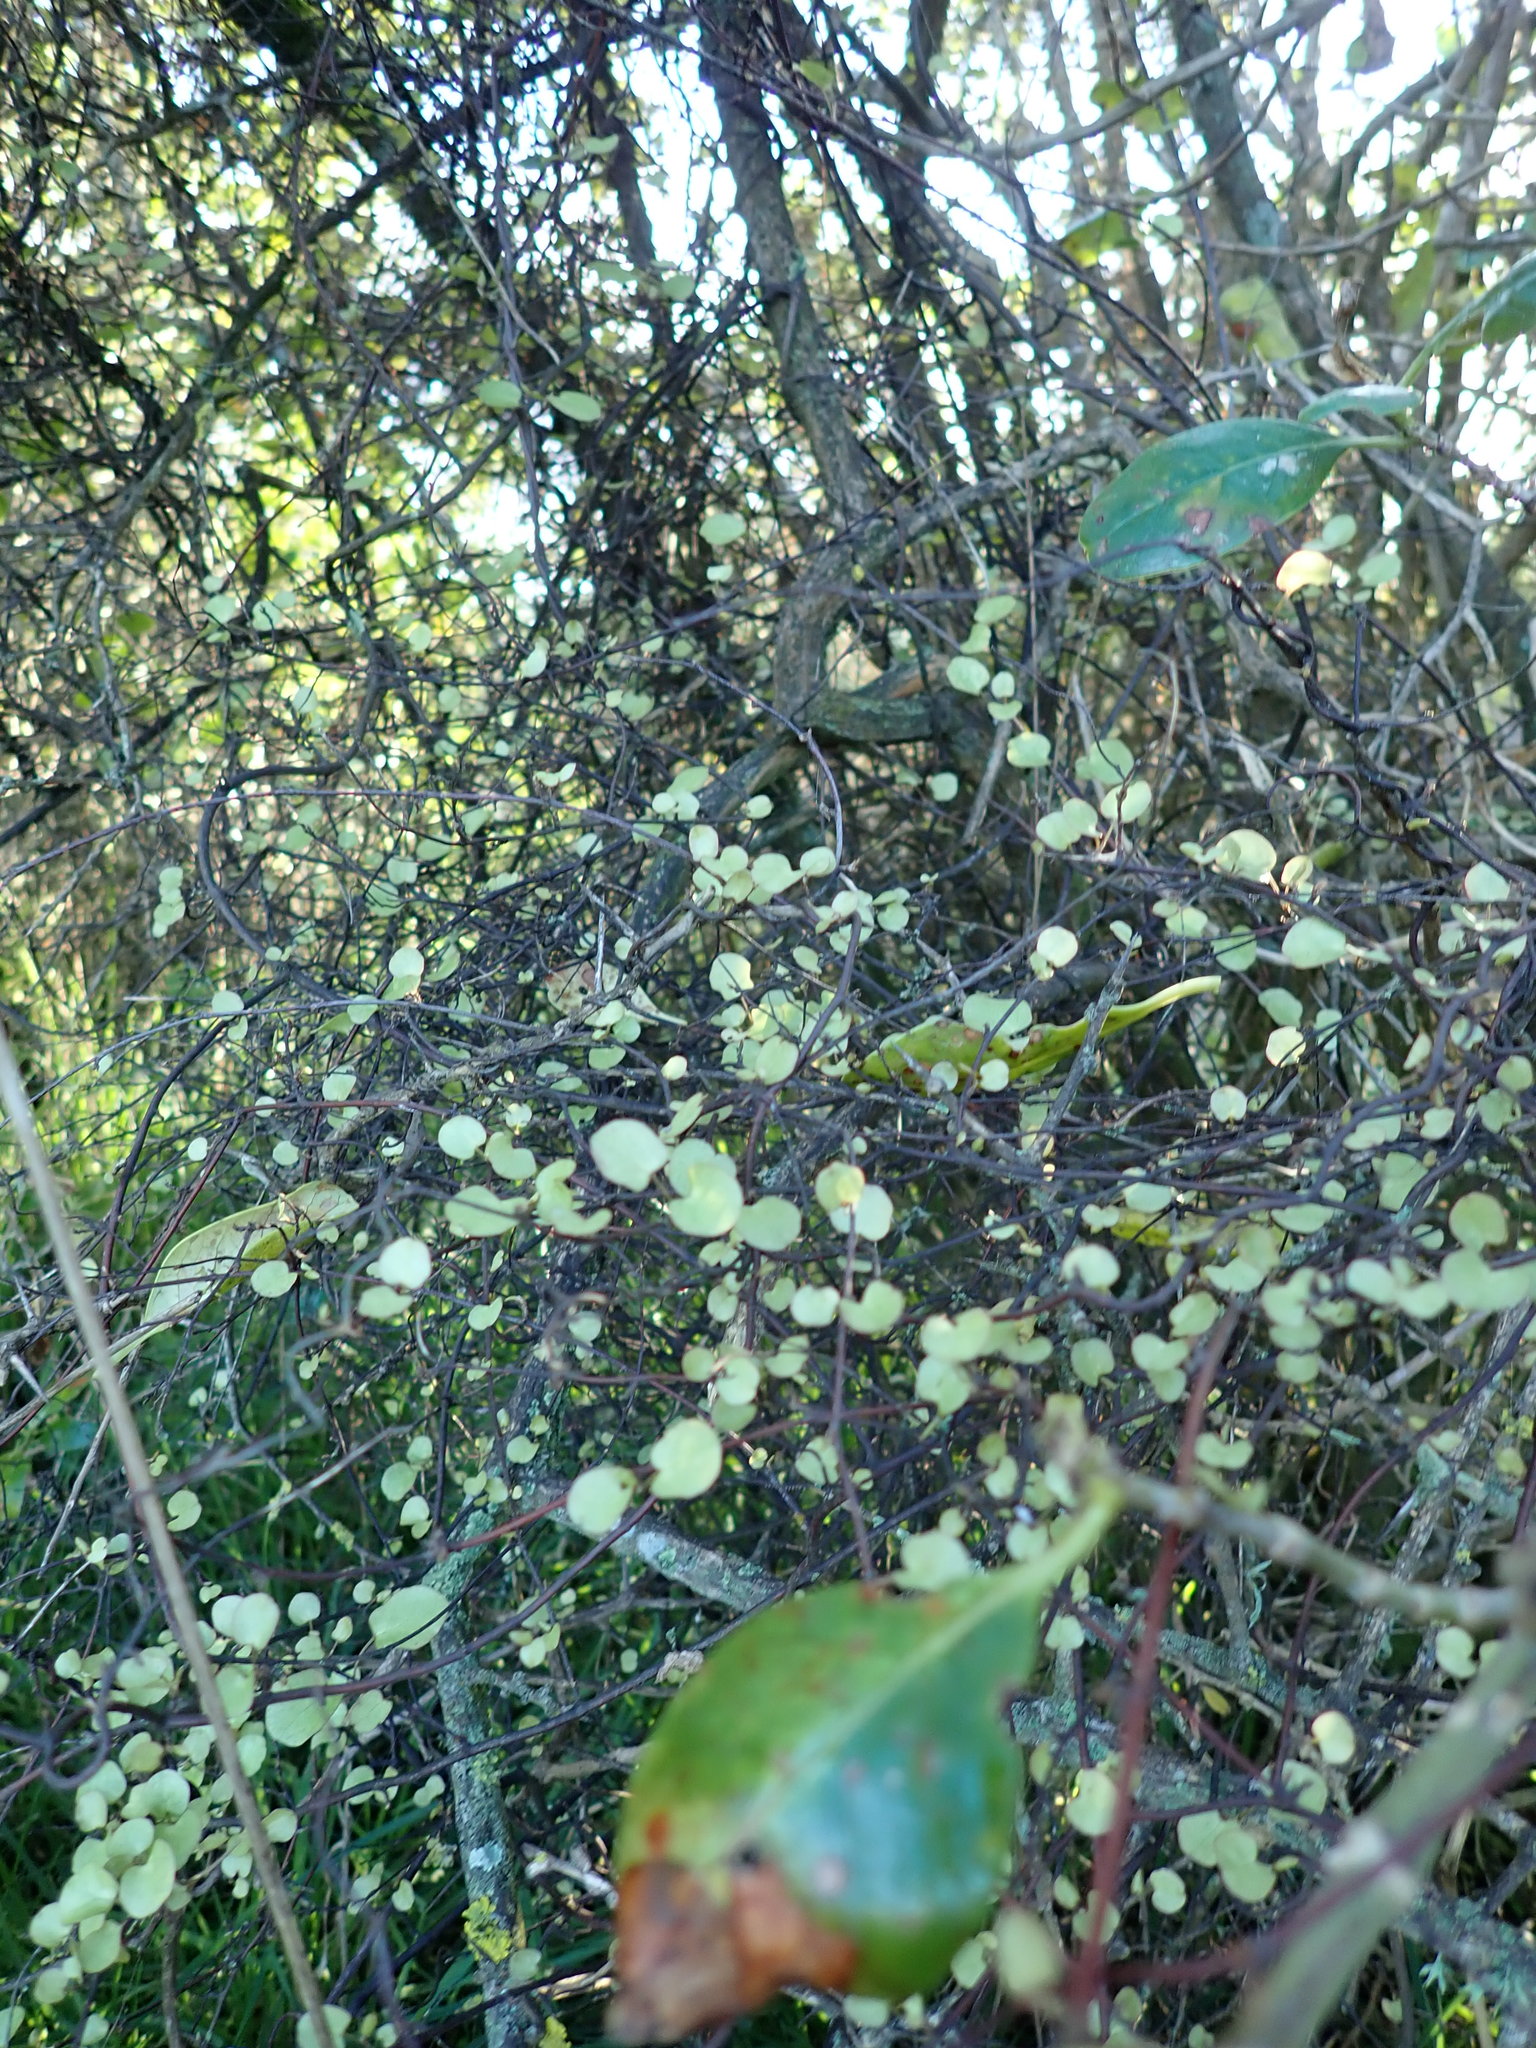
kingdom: Plantae
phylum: Tracheophyta
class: Magnoliopsida
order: Caryophyllales
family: Polygonaceae
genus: Muehlenbeckia
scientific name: Muehlenbeckia complexa
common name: Wireplant
